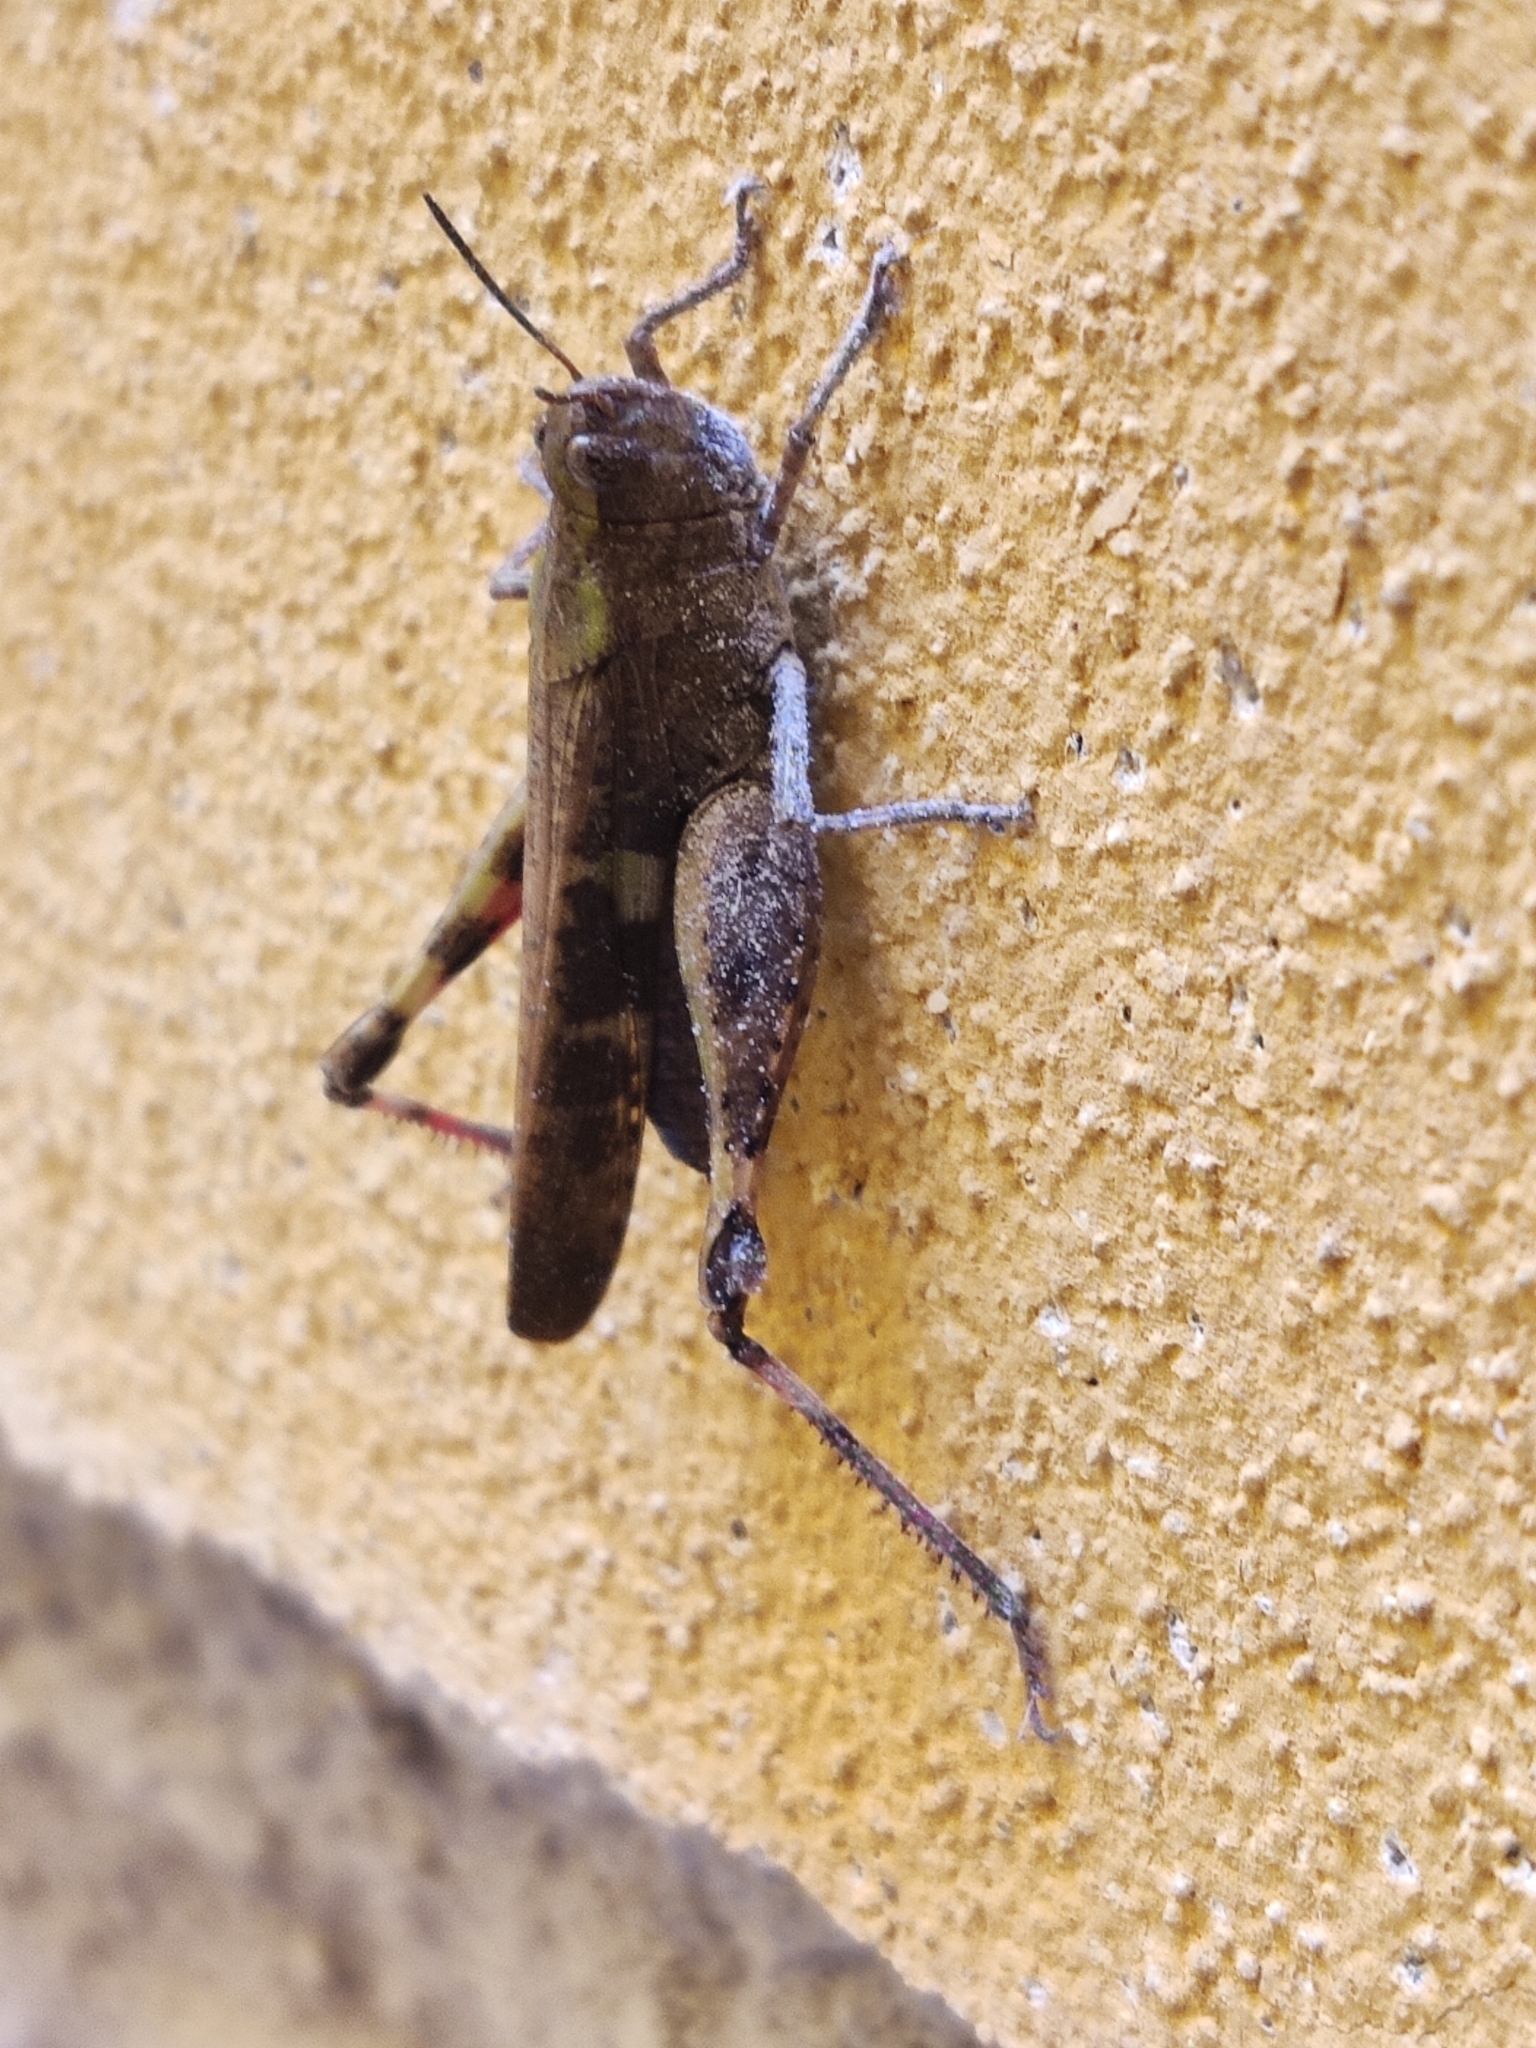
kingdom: Animalia
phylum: Arthropoda
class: Insecta
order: Orthoptera
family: Acrididae
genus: Aiolopus
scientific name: Aiolopus strepens
